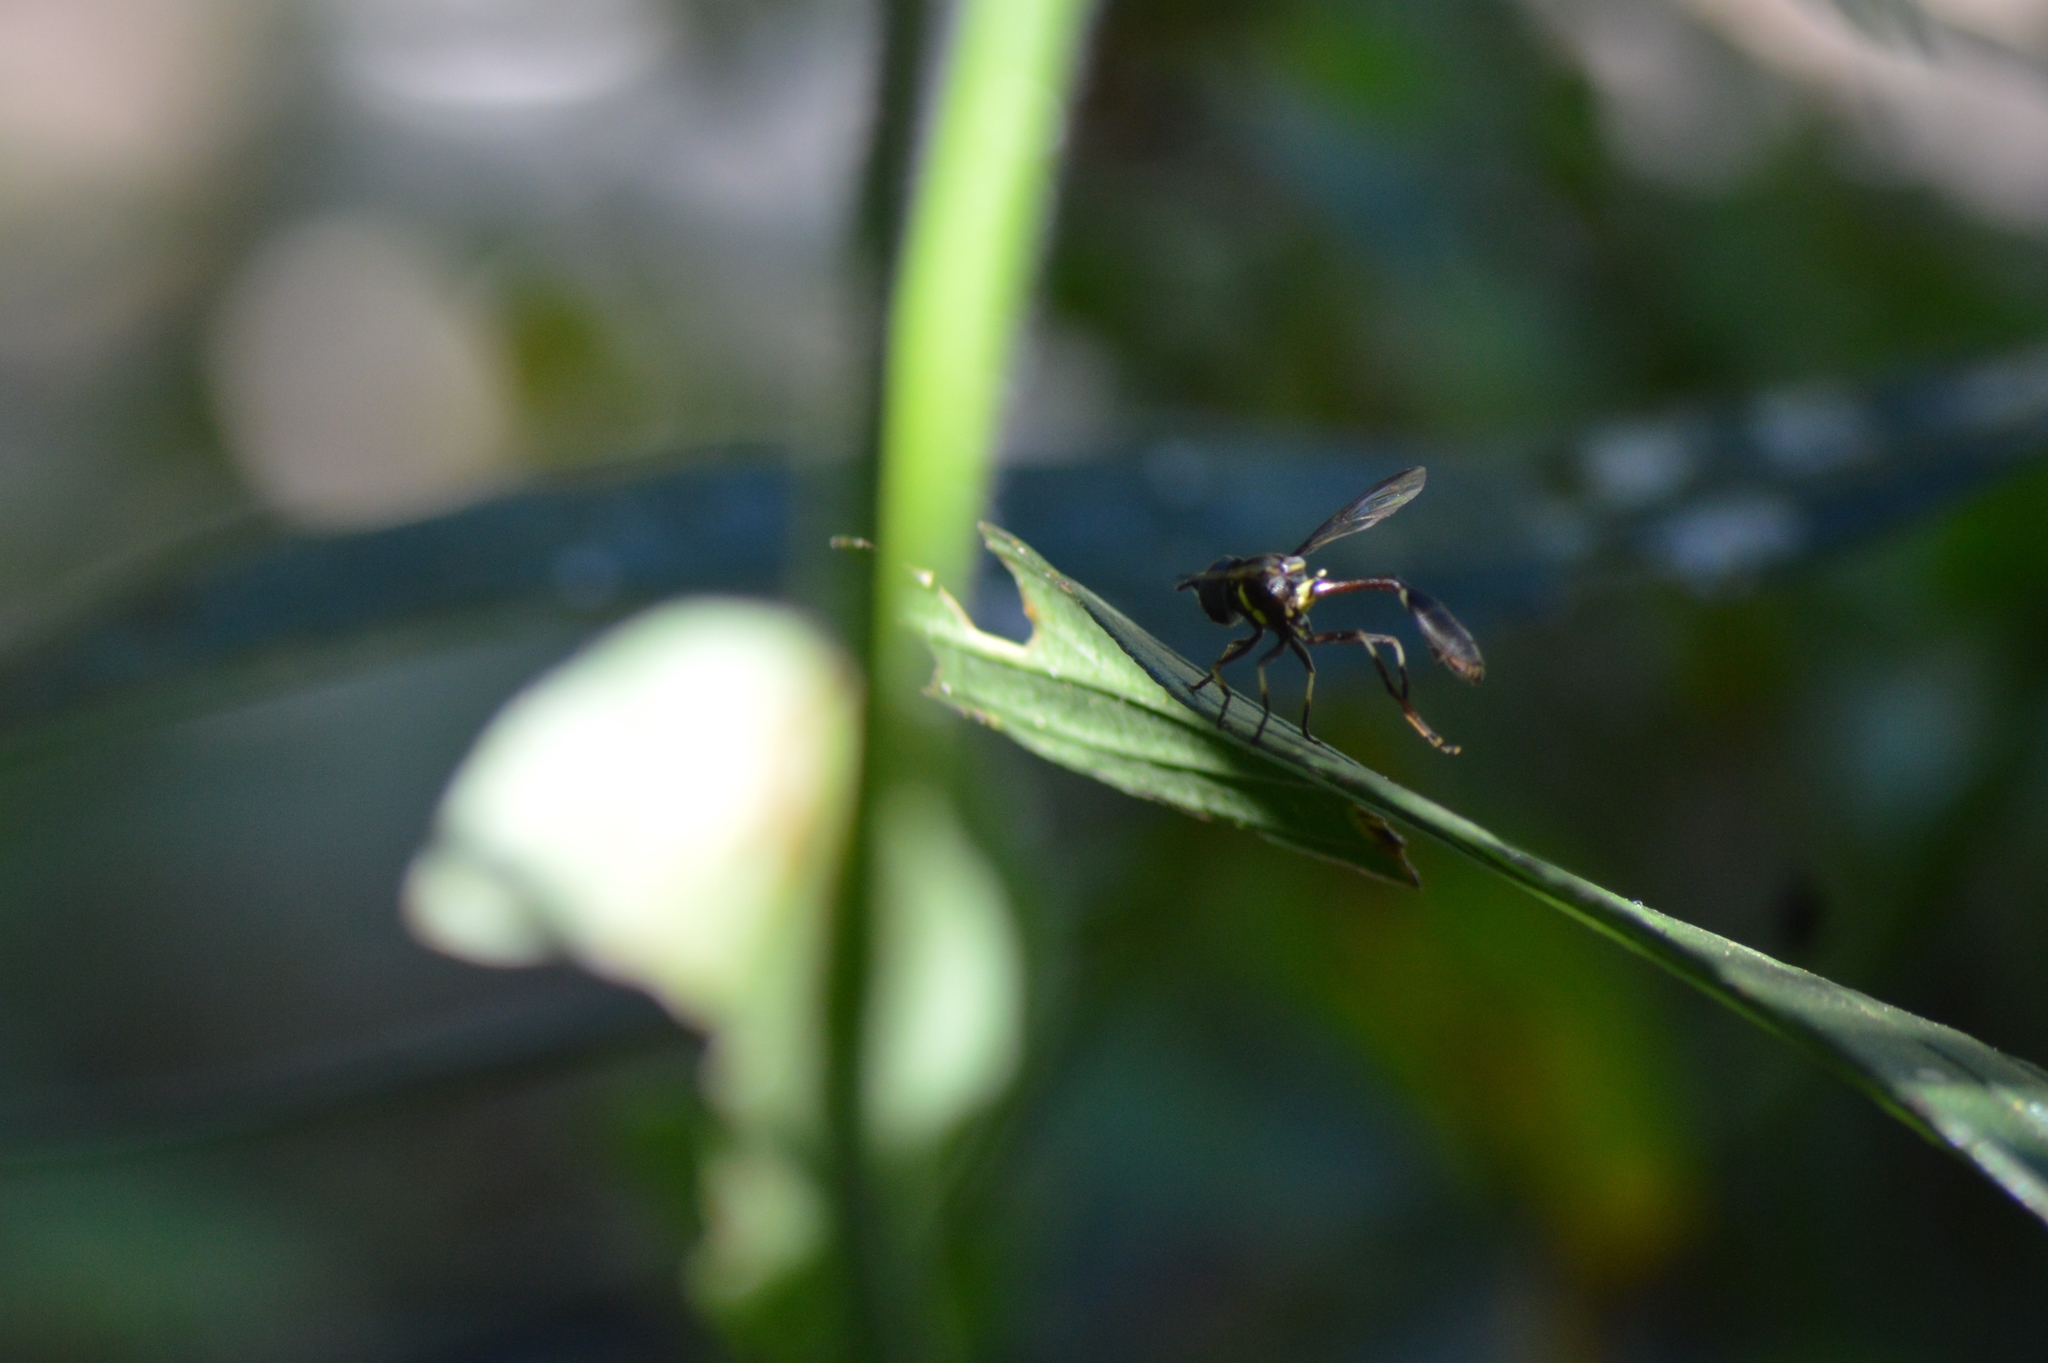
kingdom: Animalia
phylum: Arthropoda
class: Insecta
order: Diptera
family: Syrphidae
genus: Salpingogaster
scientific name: Salpingogaster nigra
